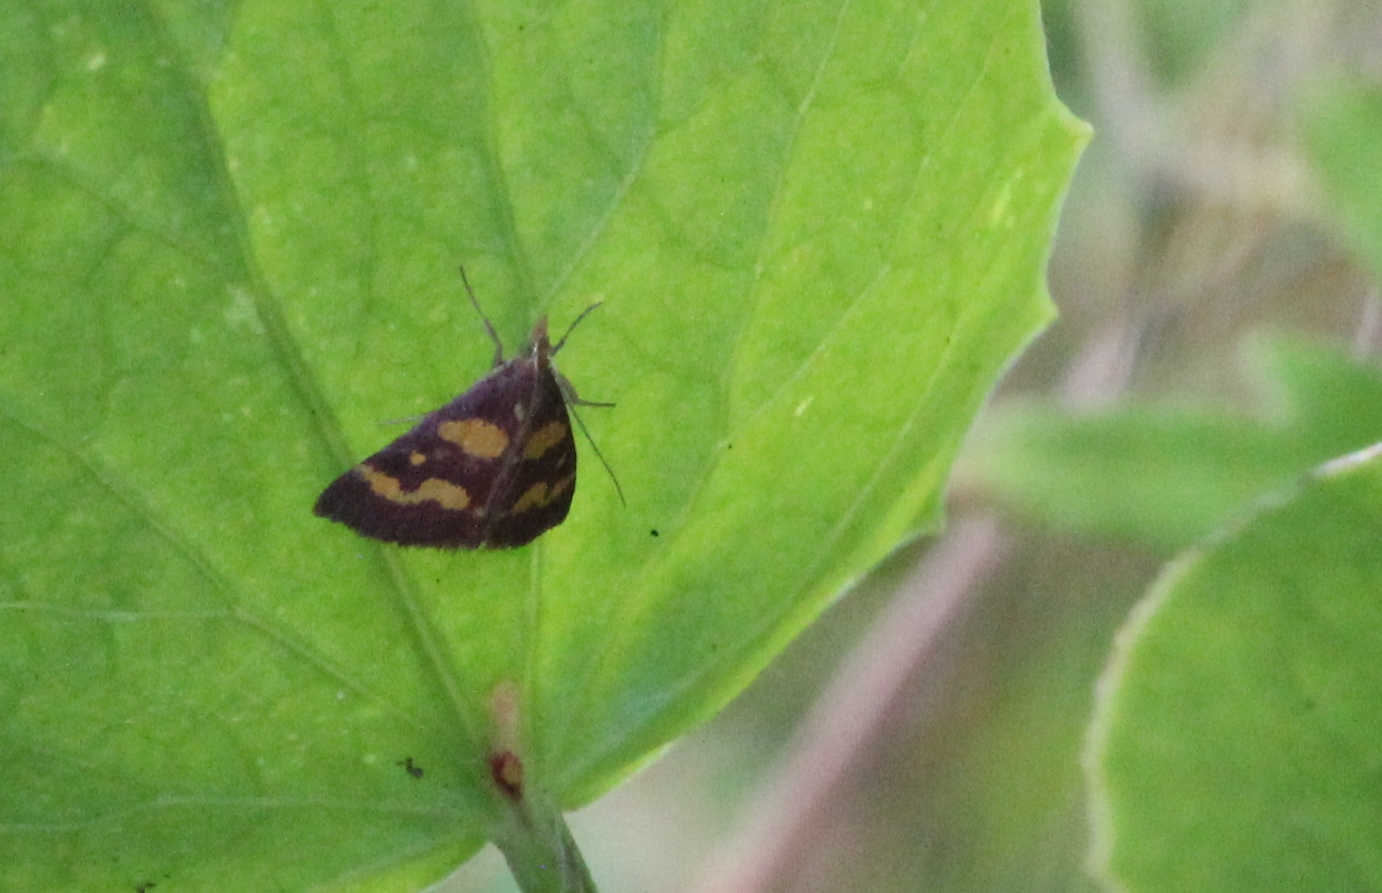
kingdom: Animalia
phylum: Arthropoda
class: Insecta
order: Lepidoptera
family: Crambidae
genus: Pyrausta
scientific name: Pyrausta tyralis
